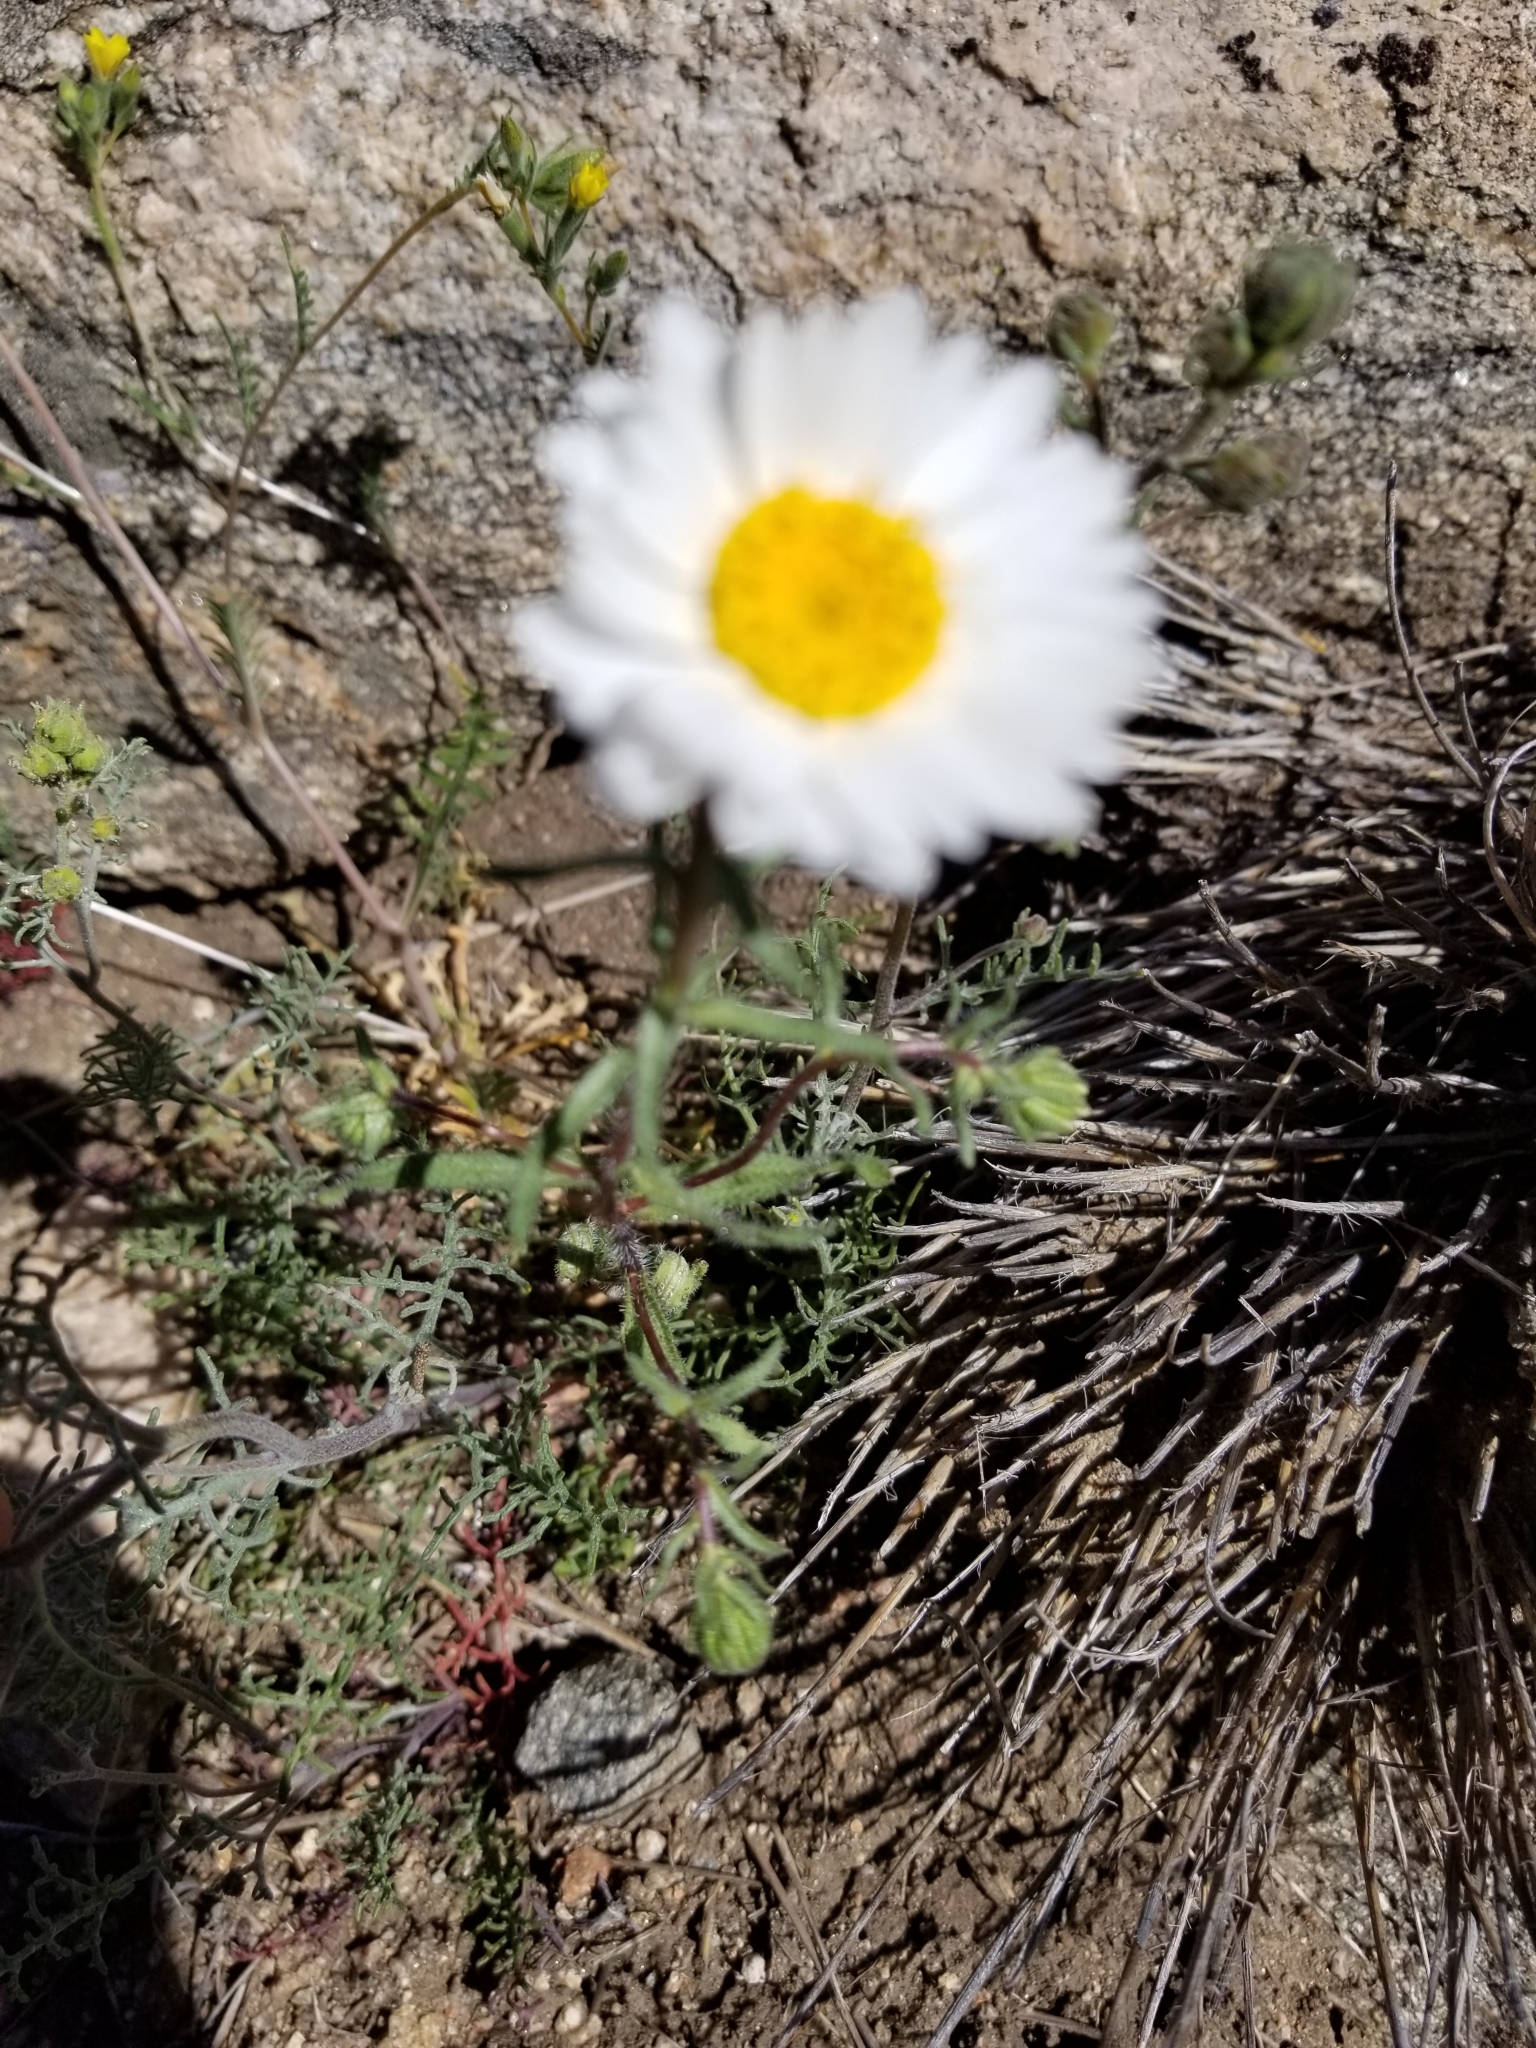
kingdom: Plantae
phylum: Tracheophyta
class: Magnoliopsida
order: Asterales
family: Asteraceae
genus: Layia
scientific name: Layia glandulosa
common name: White layia
